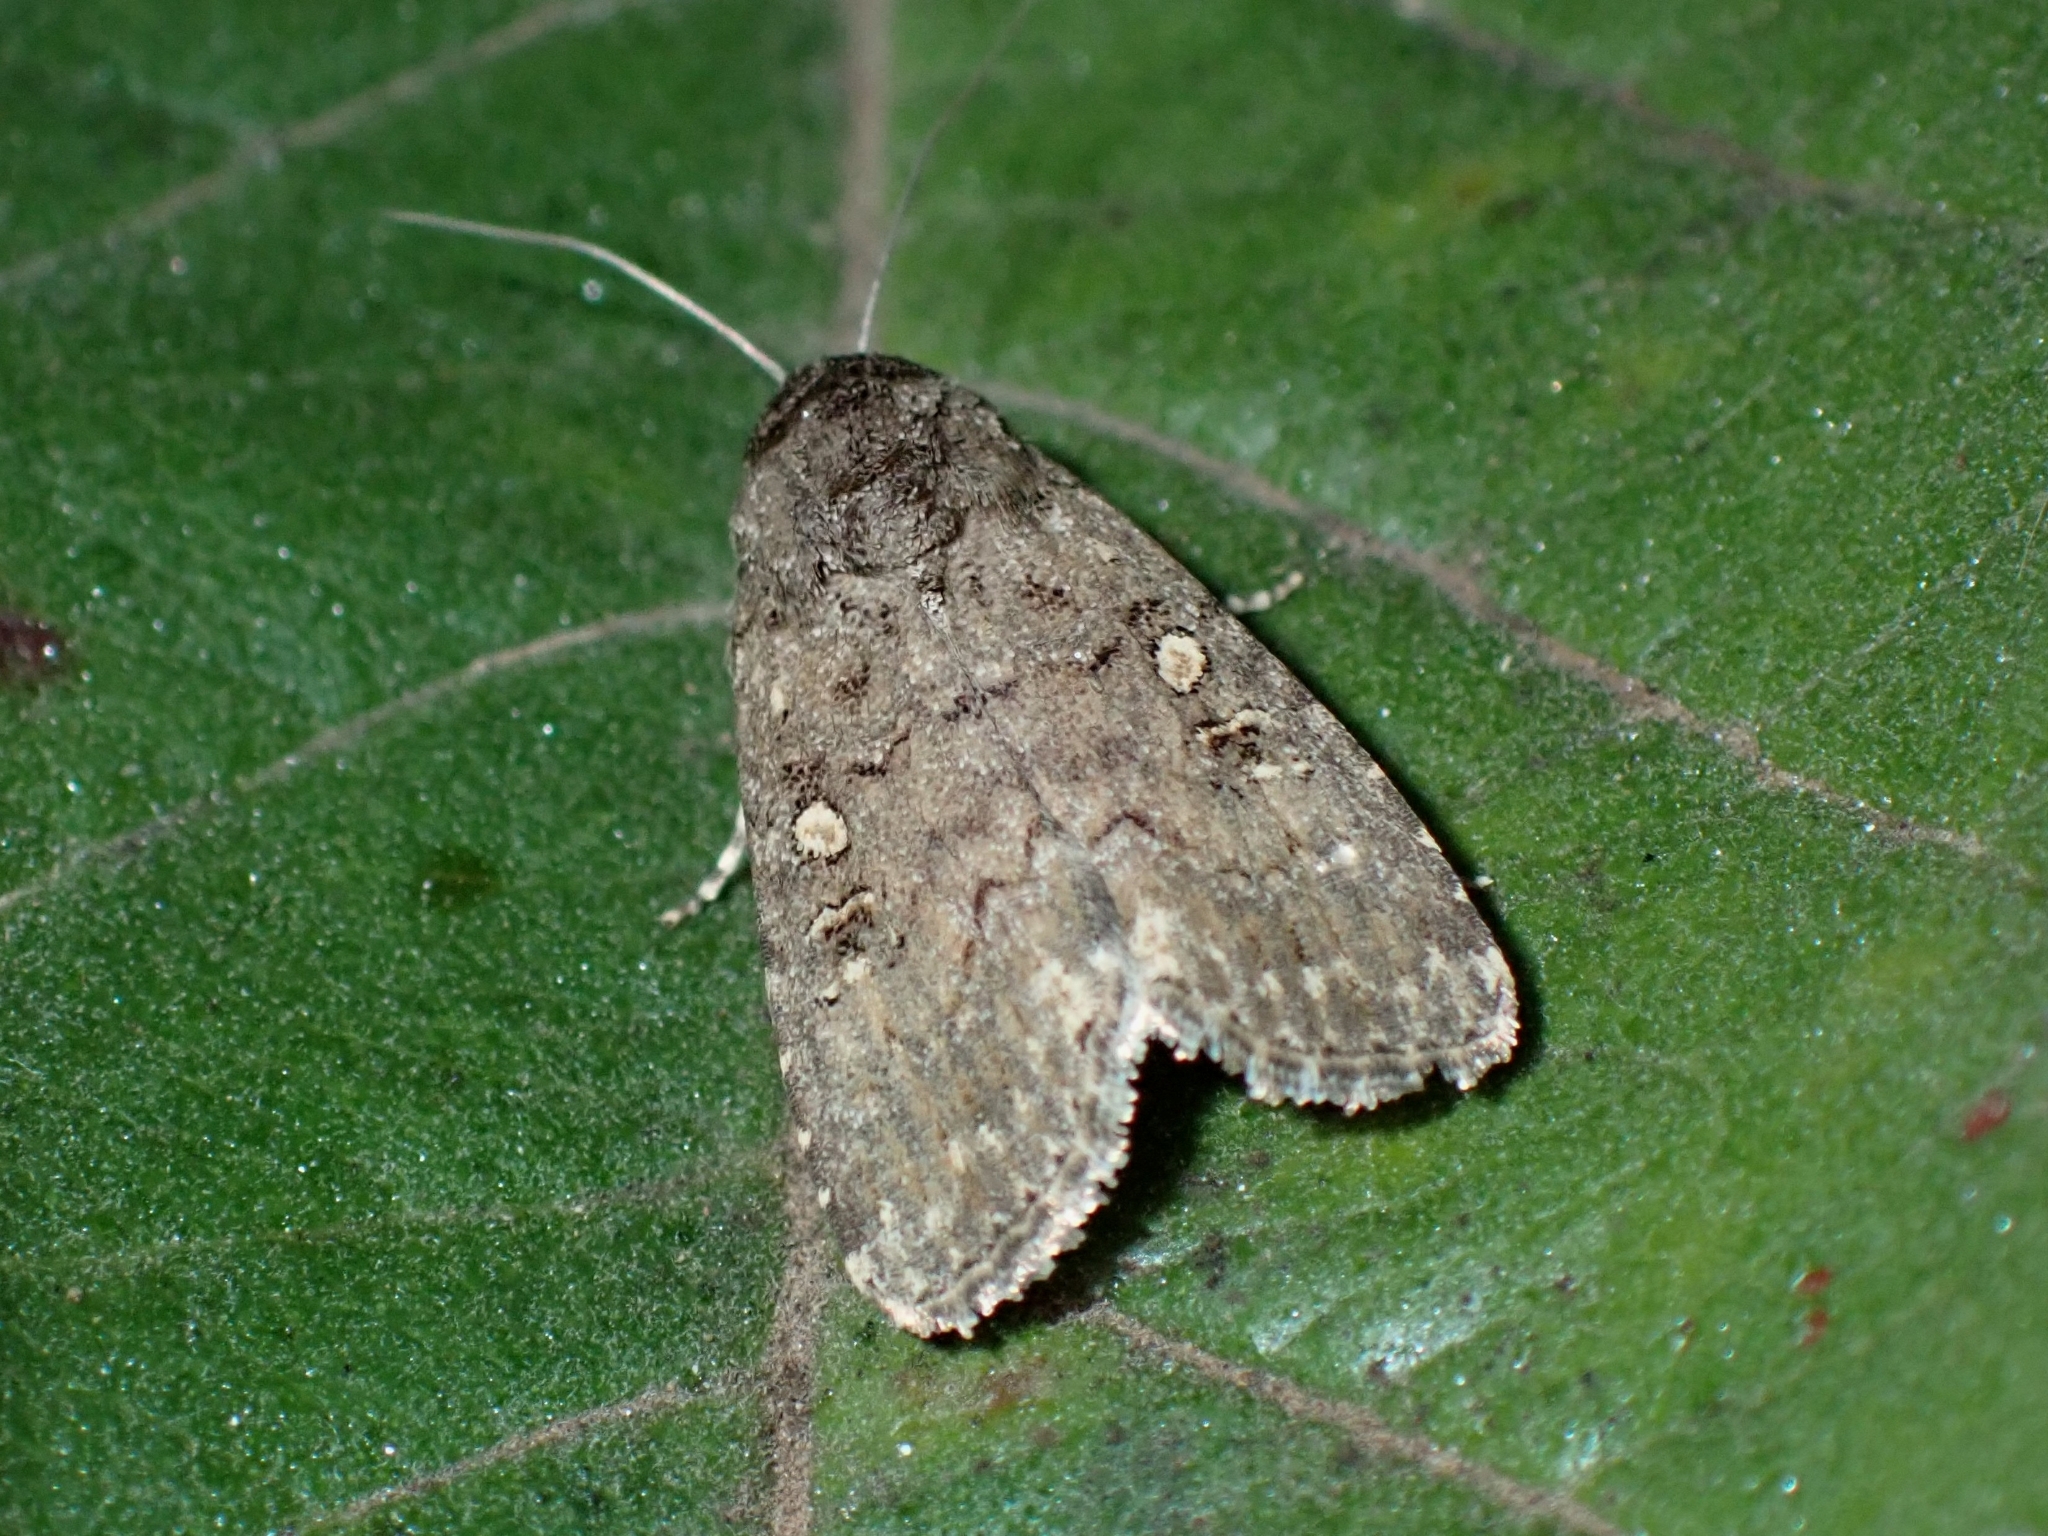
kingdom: Animalia
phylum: Arthropoda
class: Insecta
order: Lepidoptera
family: Noctuidae
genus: Spodoptera
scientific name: Spodoptera cilium
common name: Dark mottled willow
